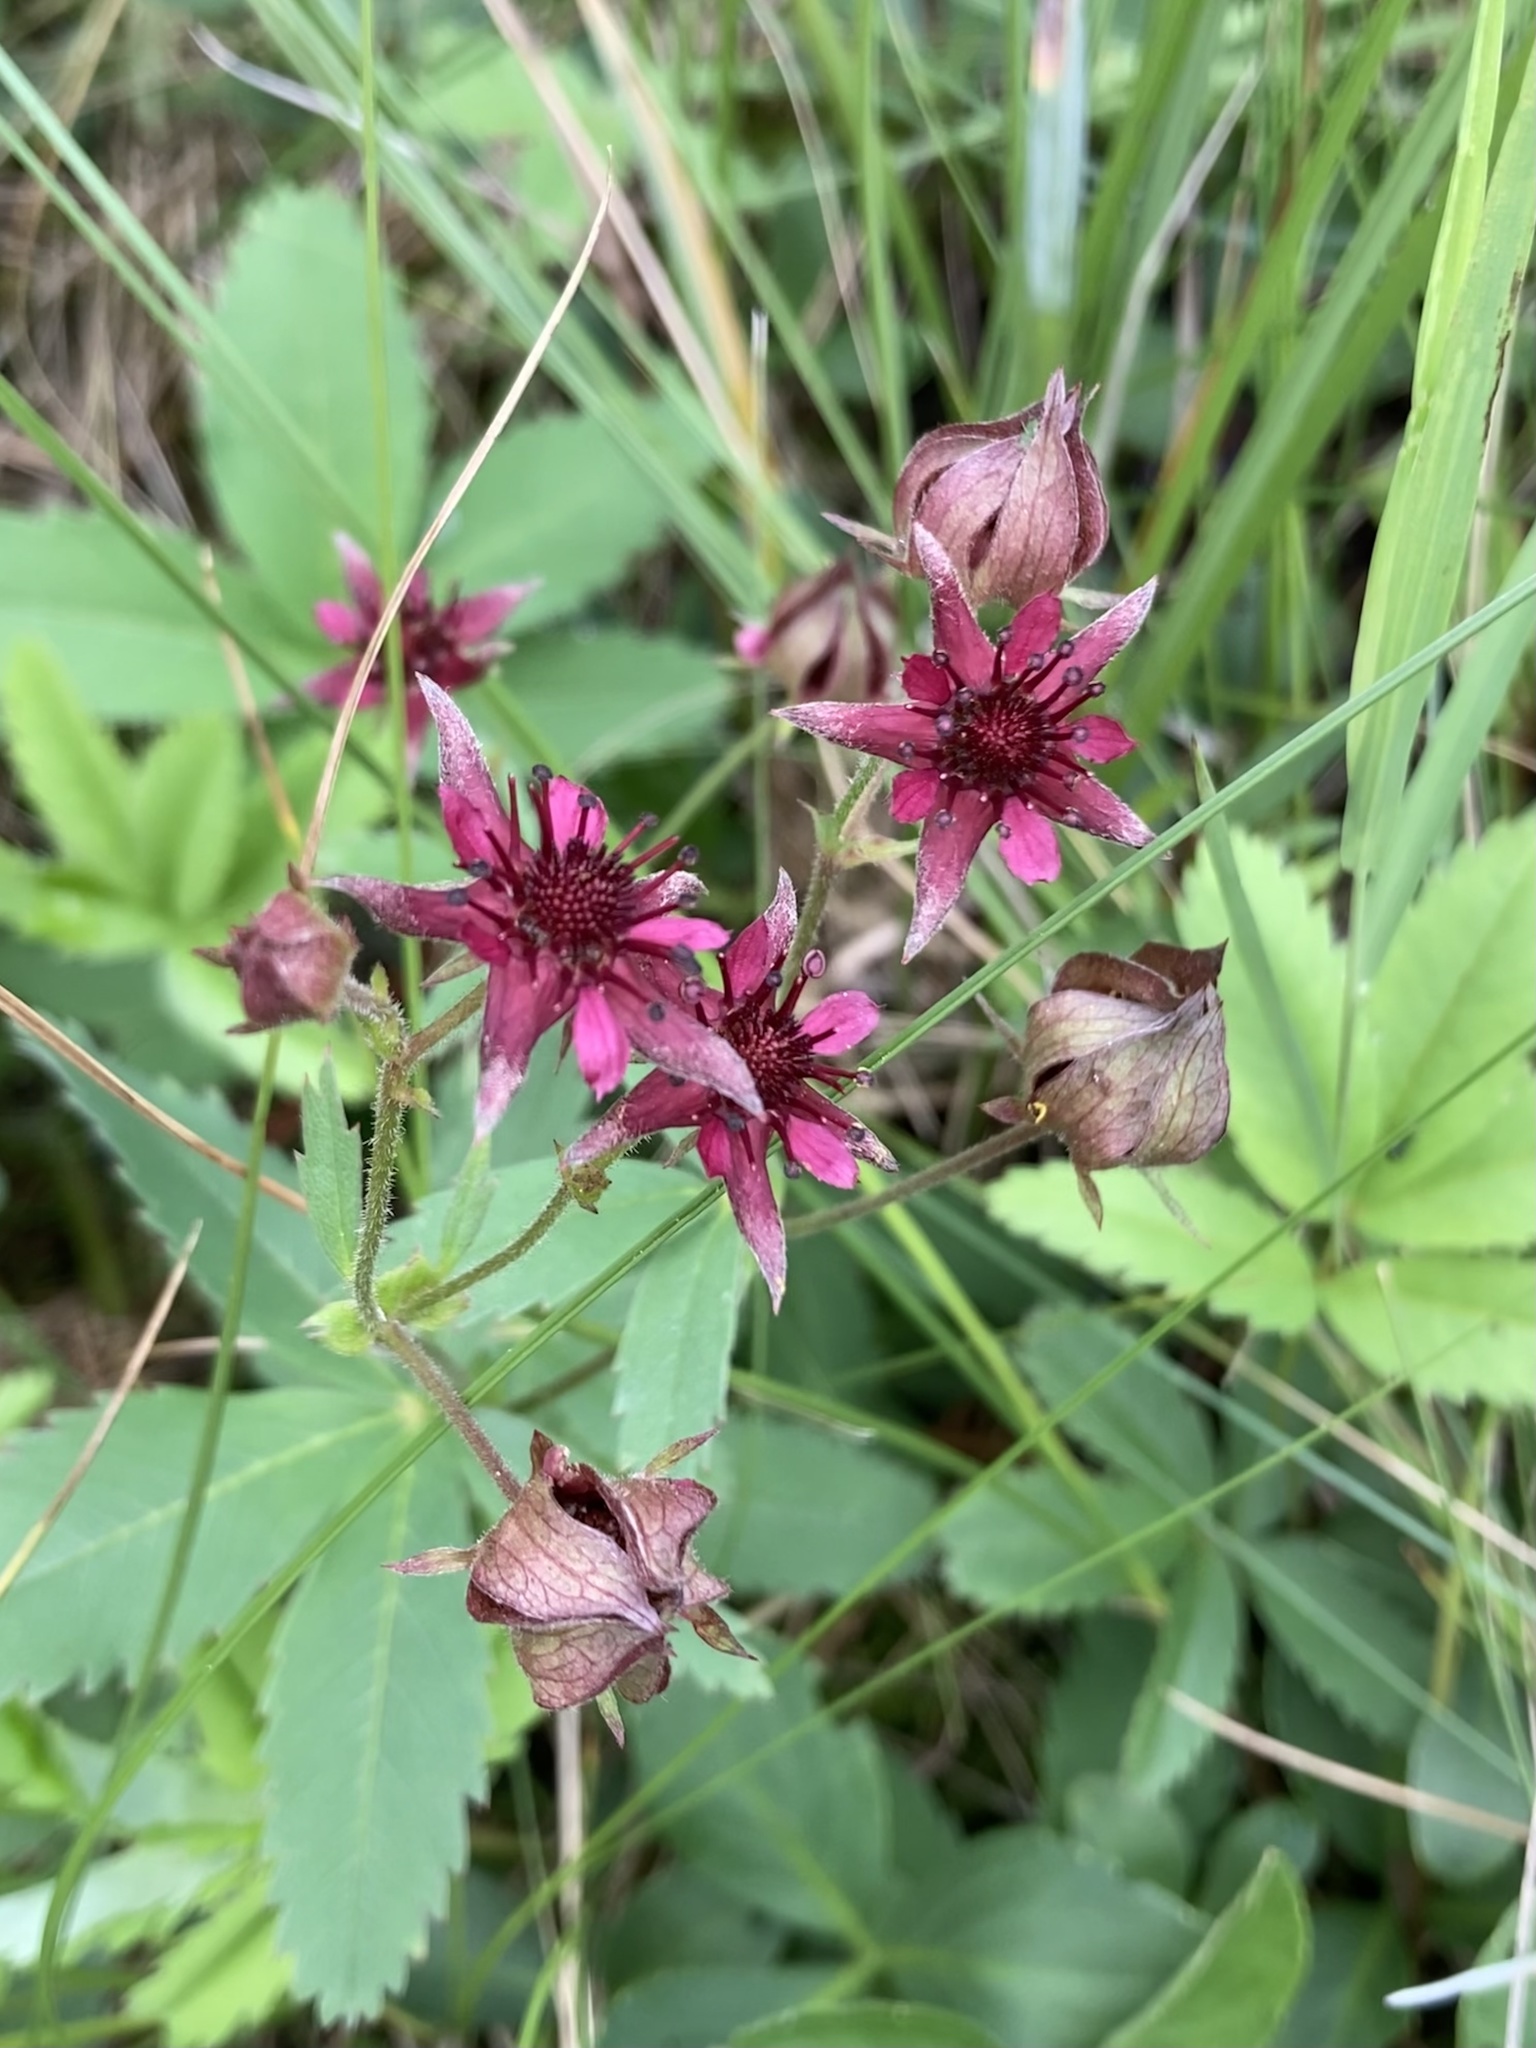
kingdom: Plantae
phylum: Tracheophyta
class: Magnoliopsida
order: Rosales
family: Rosaceae
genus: Comarum
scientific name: Comarum palustre
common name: Marsh cinquefoil
